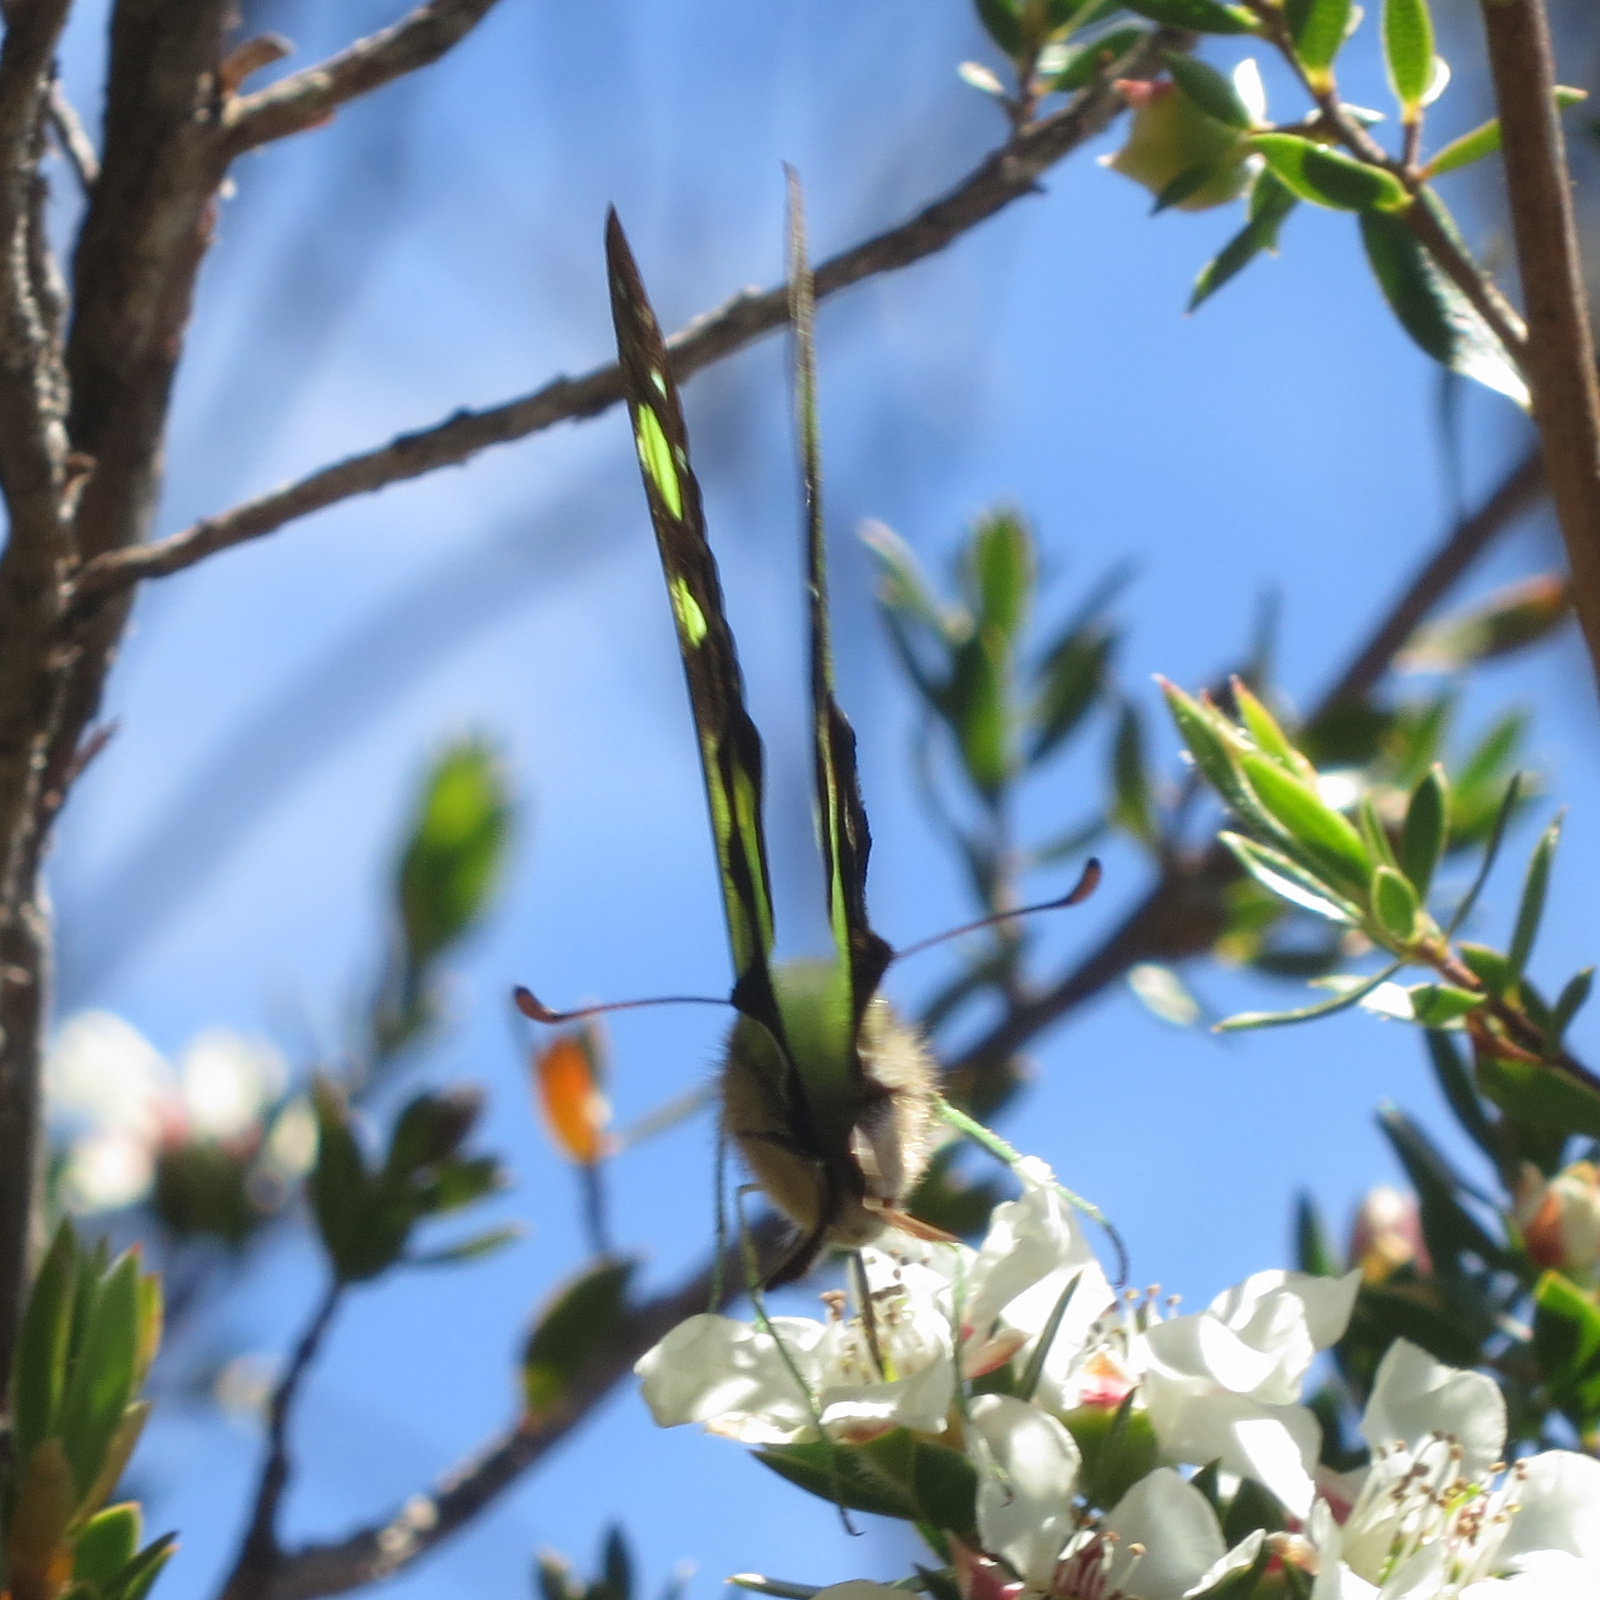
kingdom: Animalia
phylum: Arthropoda
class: Insecta
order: Lepidoptera
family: Papilionidae
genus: Graphium
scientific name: Graphium macleayanus
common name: Macleay's swallowtail
